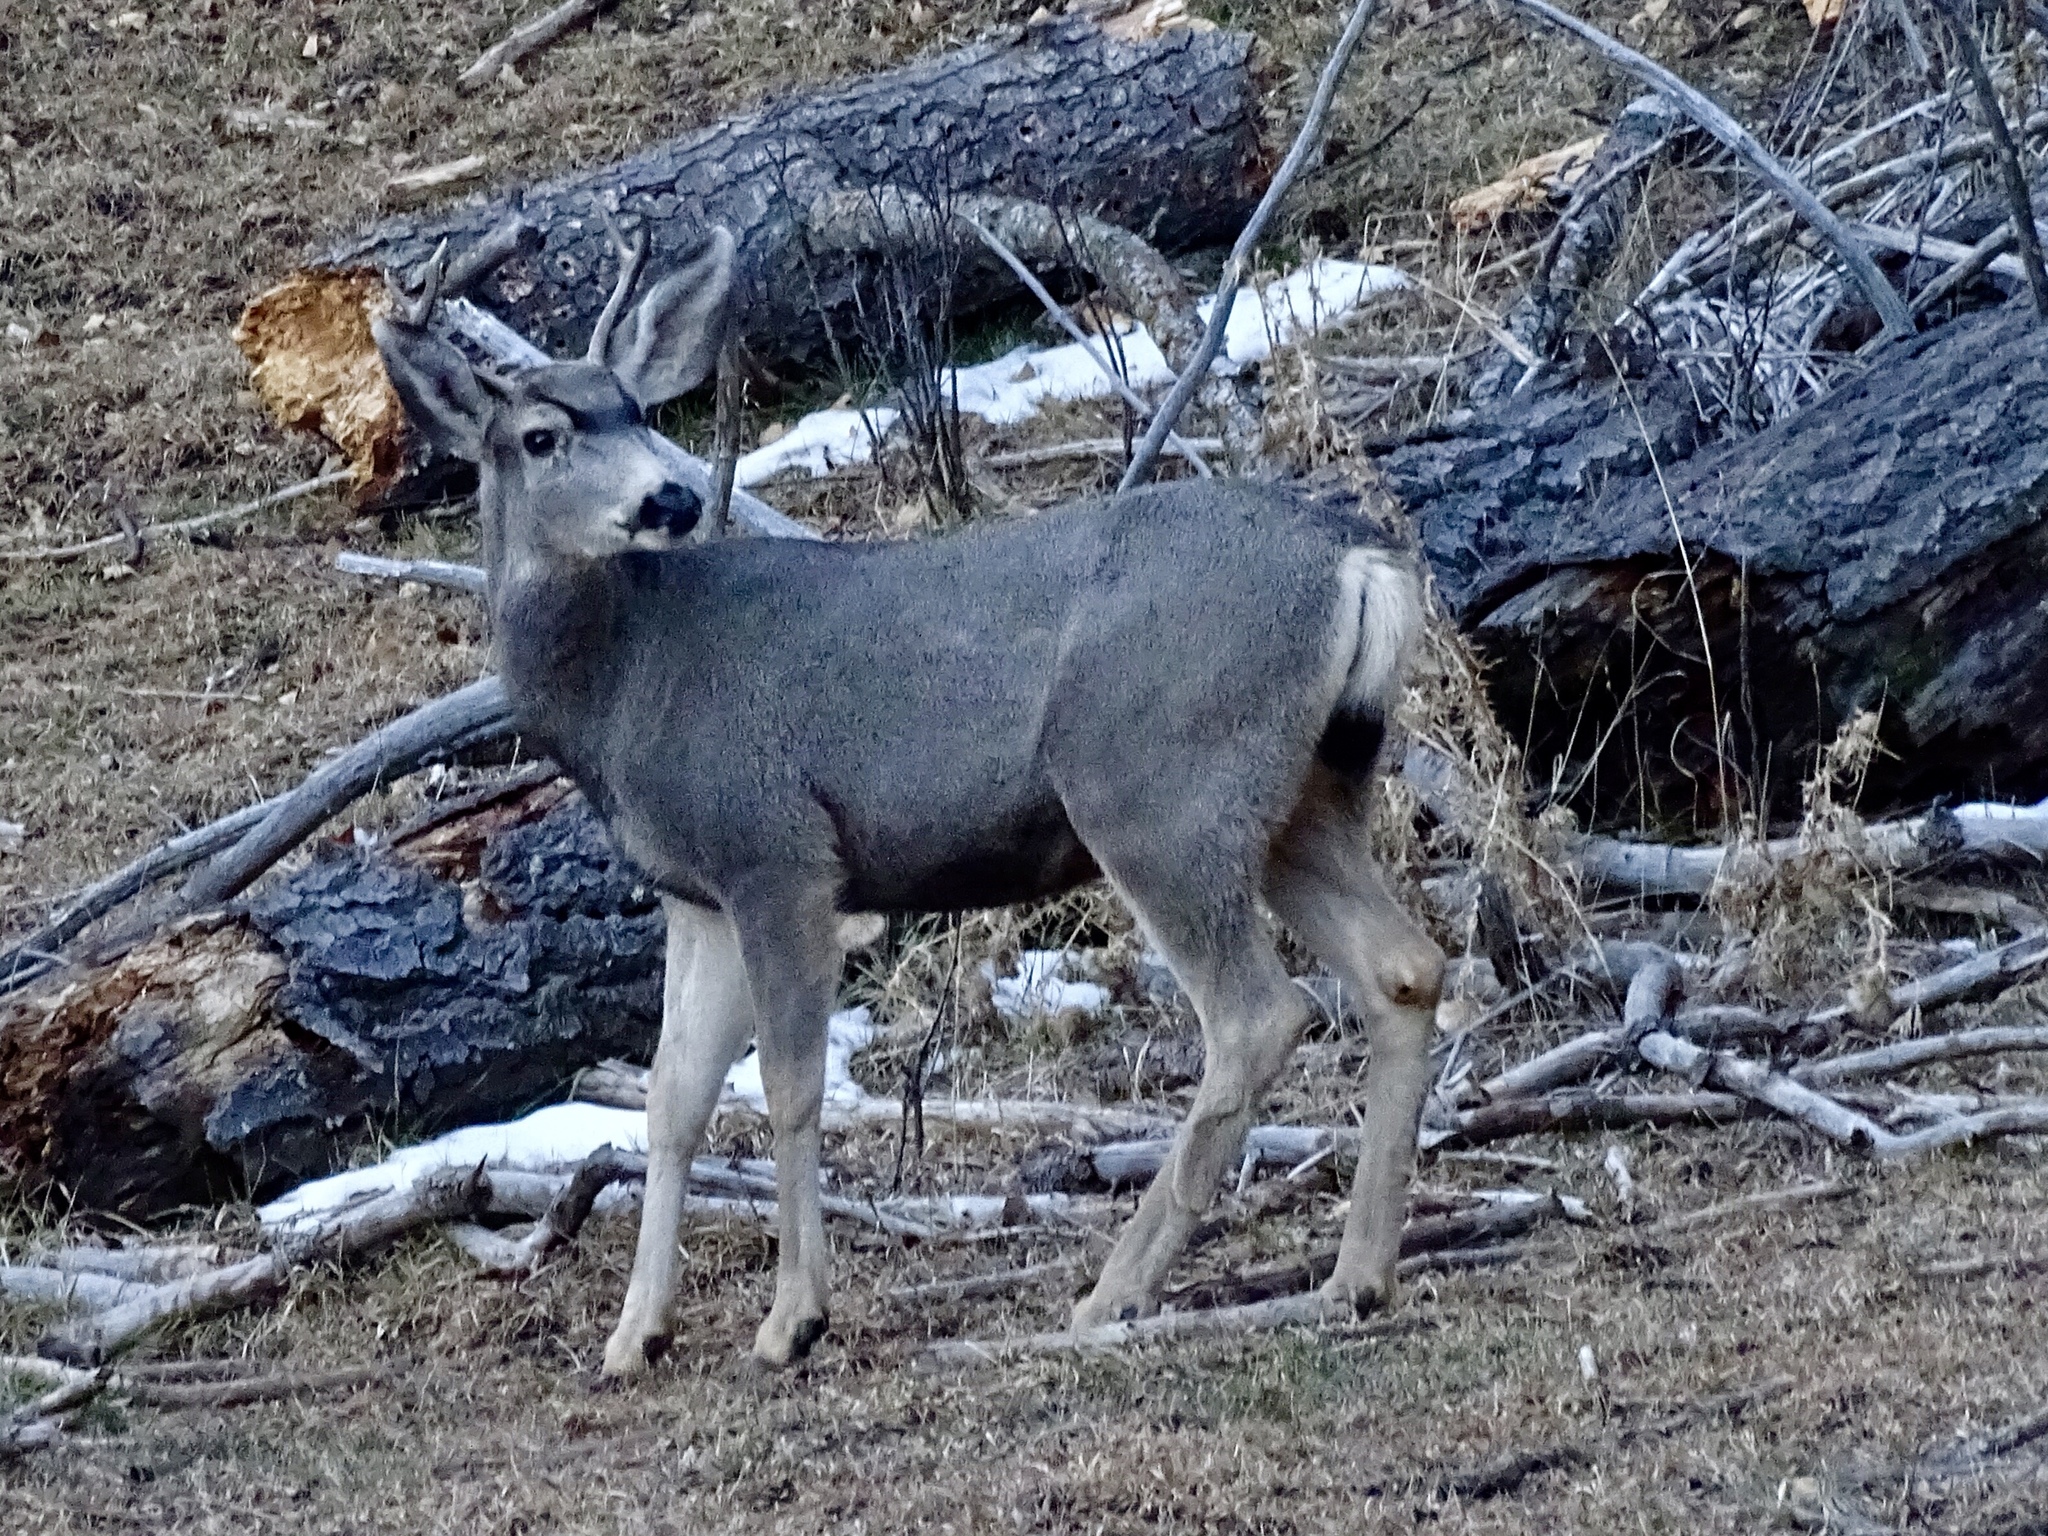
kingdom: Animalia
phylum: Chordata
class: Mammalia
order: Artiodactyla
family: Cervidae
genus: Odocoileus
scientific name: Odocoileus hemionus
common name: Mule deer
